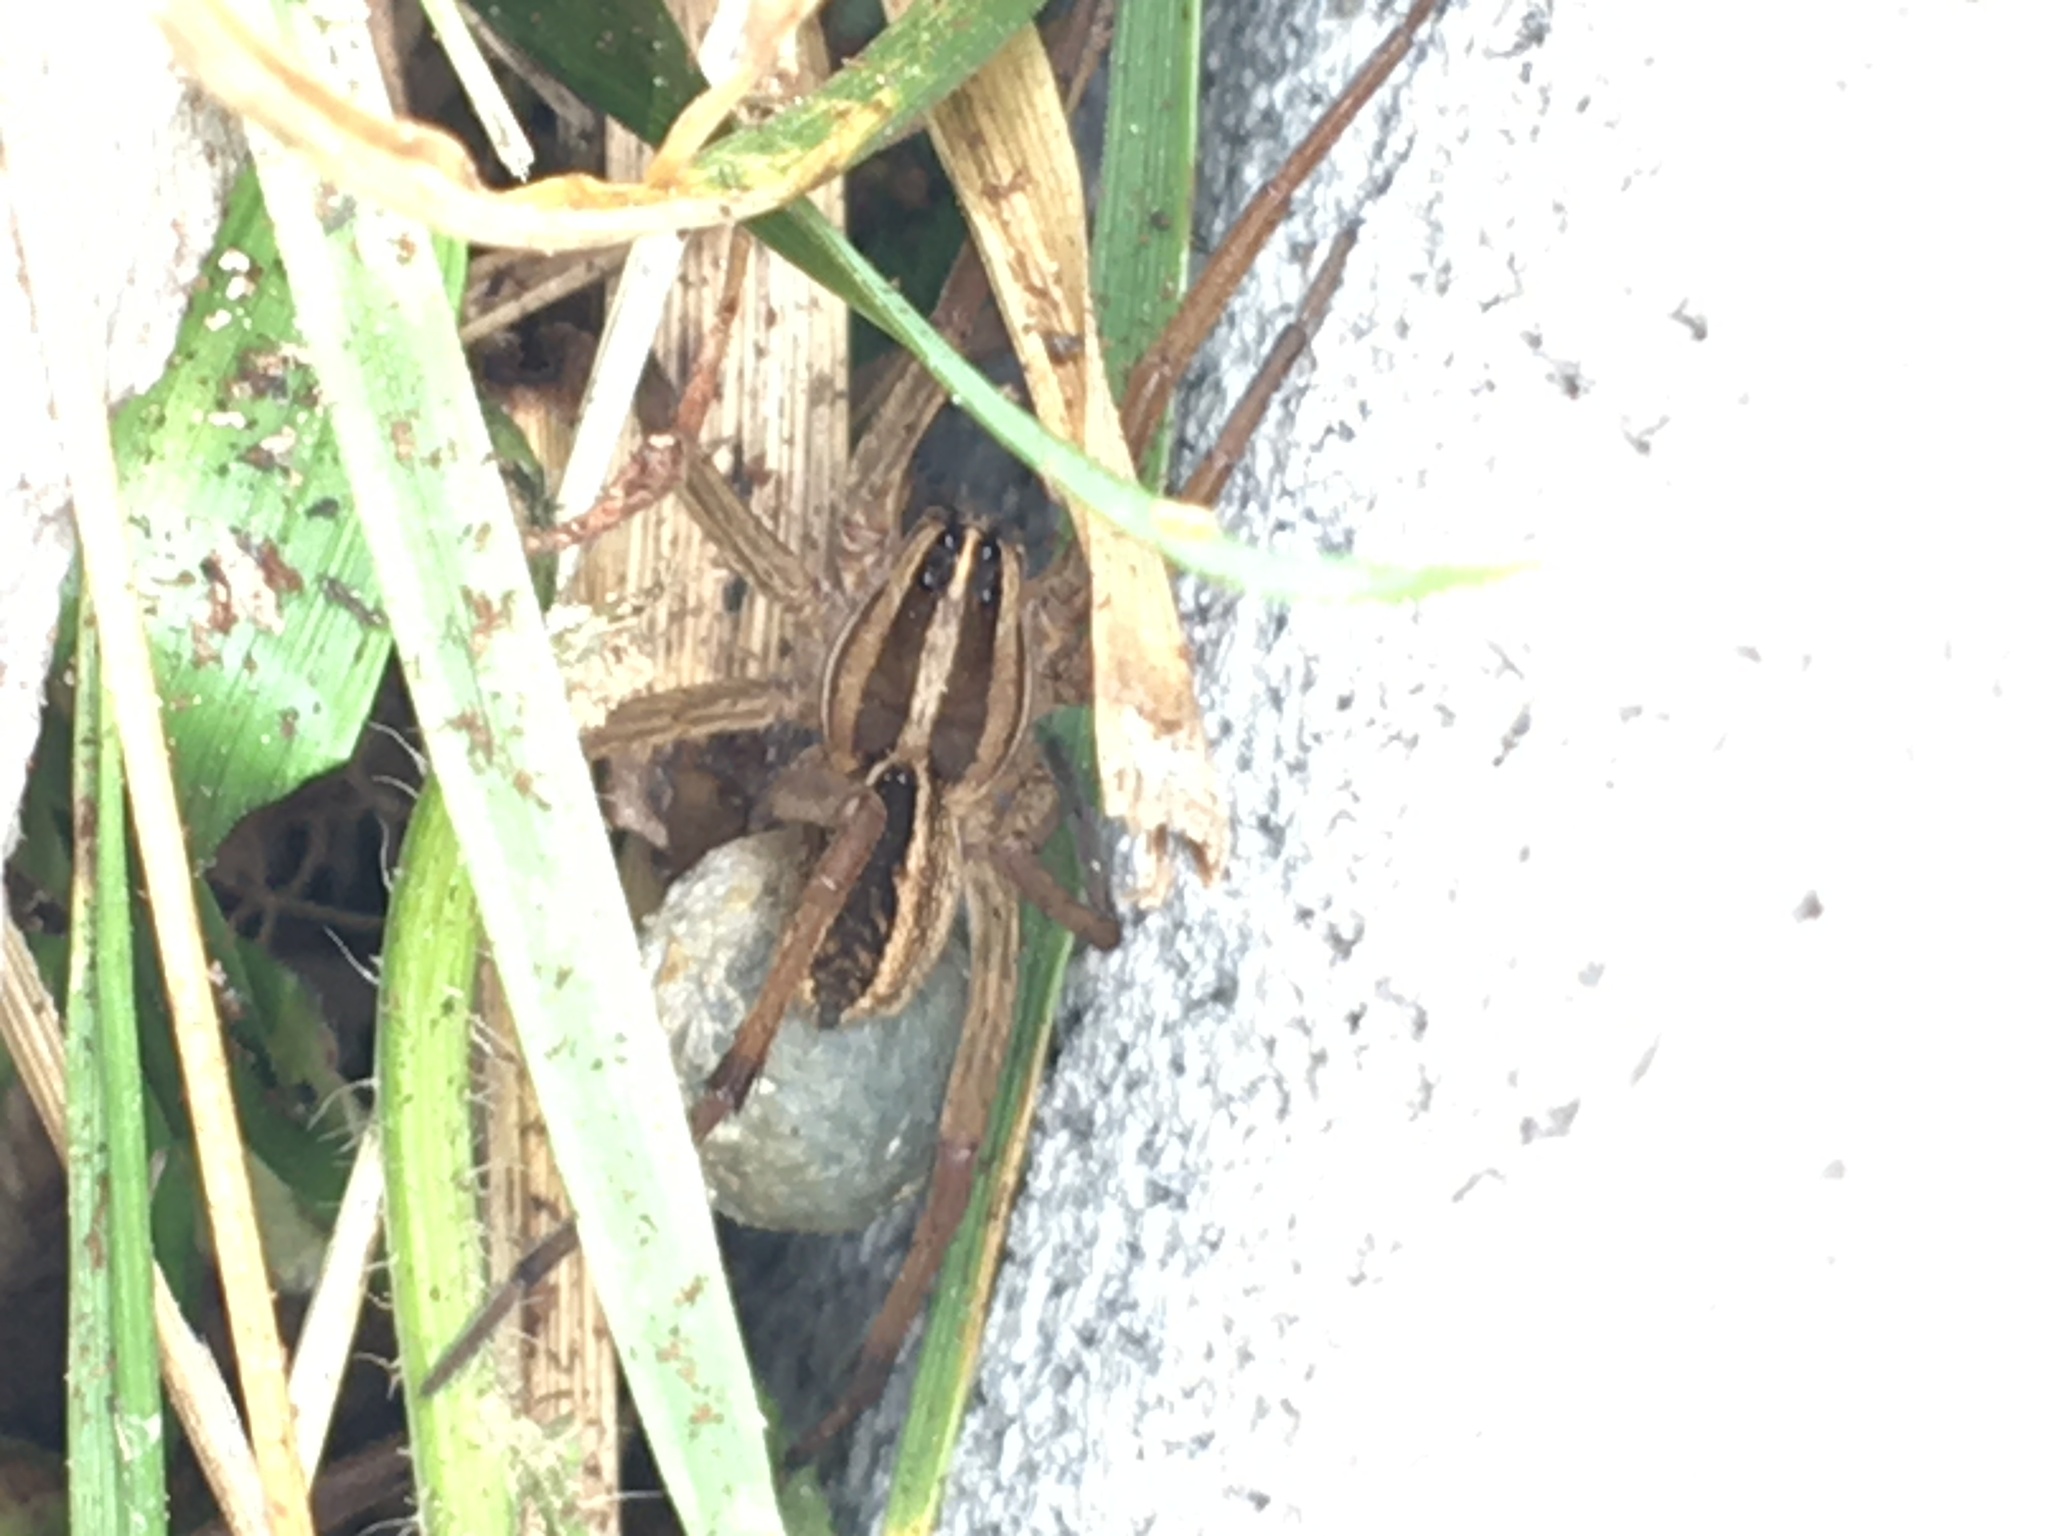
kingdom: Animalia
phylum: Arthropoda
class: Arachnida
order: Araneae
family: Lycosidae
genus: Rabidosa
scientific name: Rabidosa rabida
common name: Rabid wolf spider
